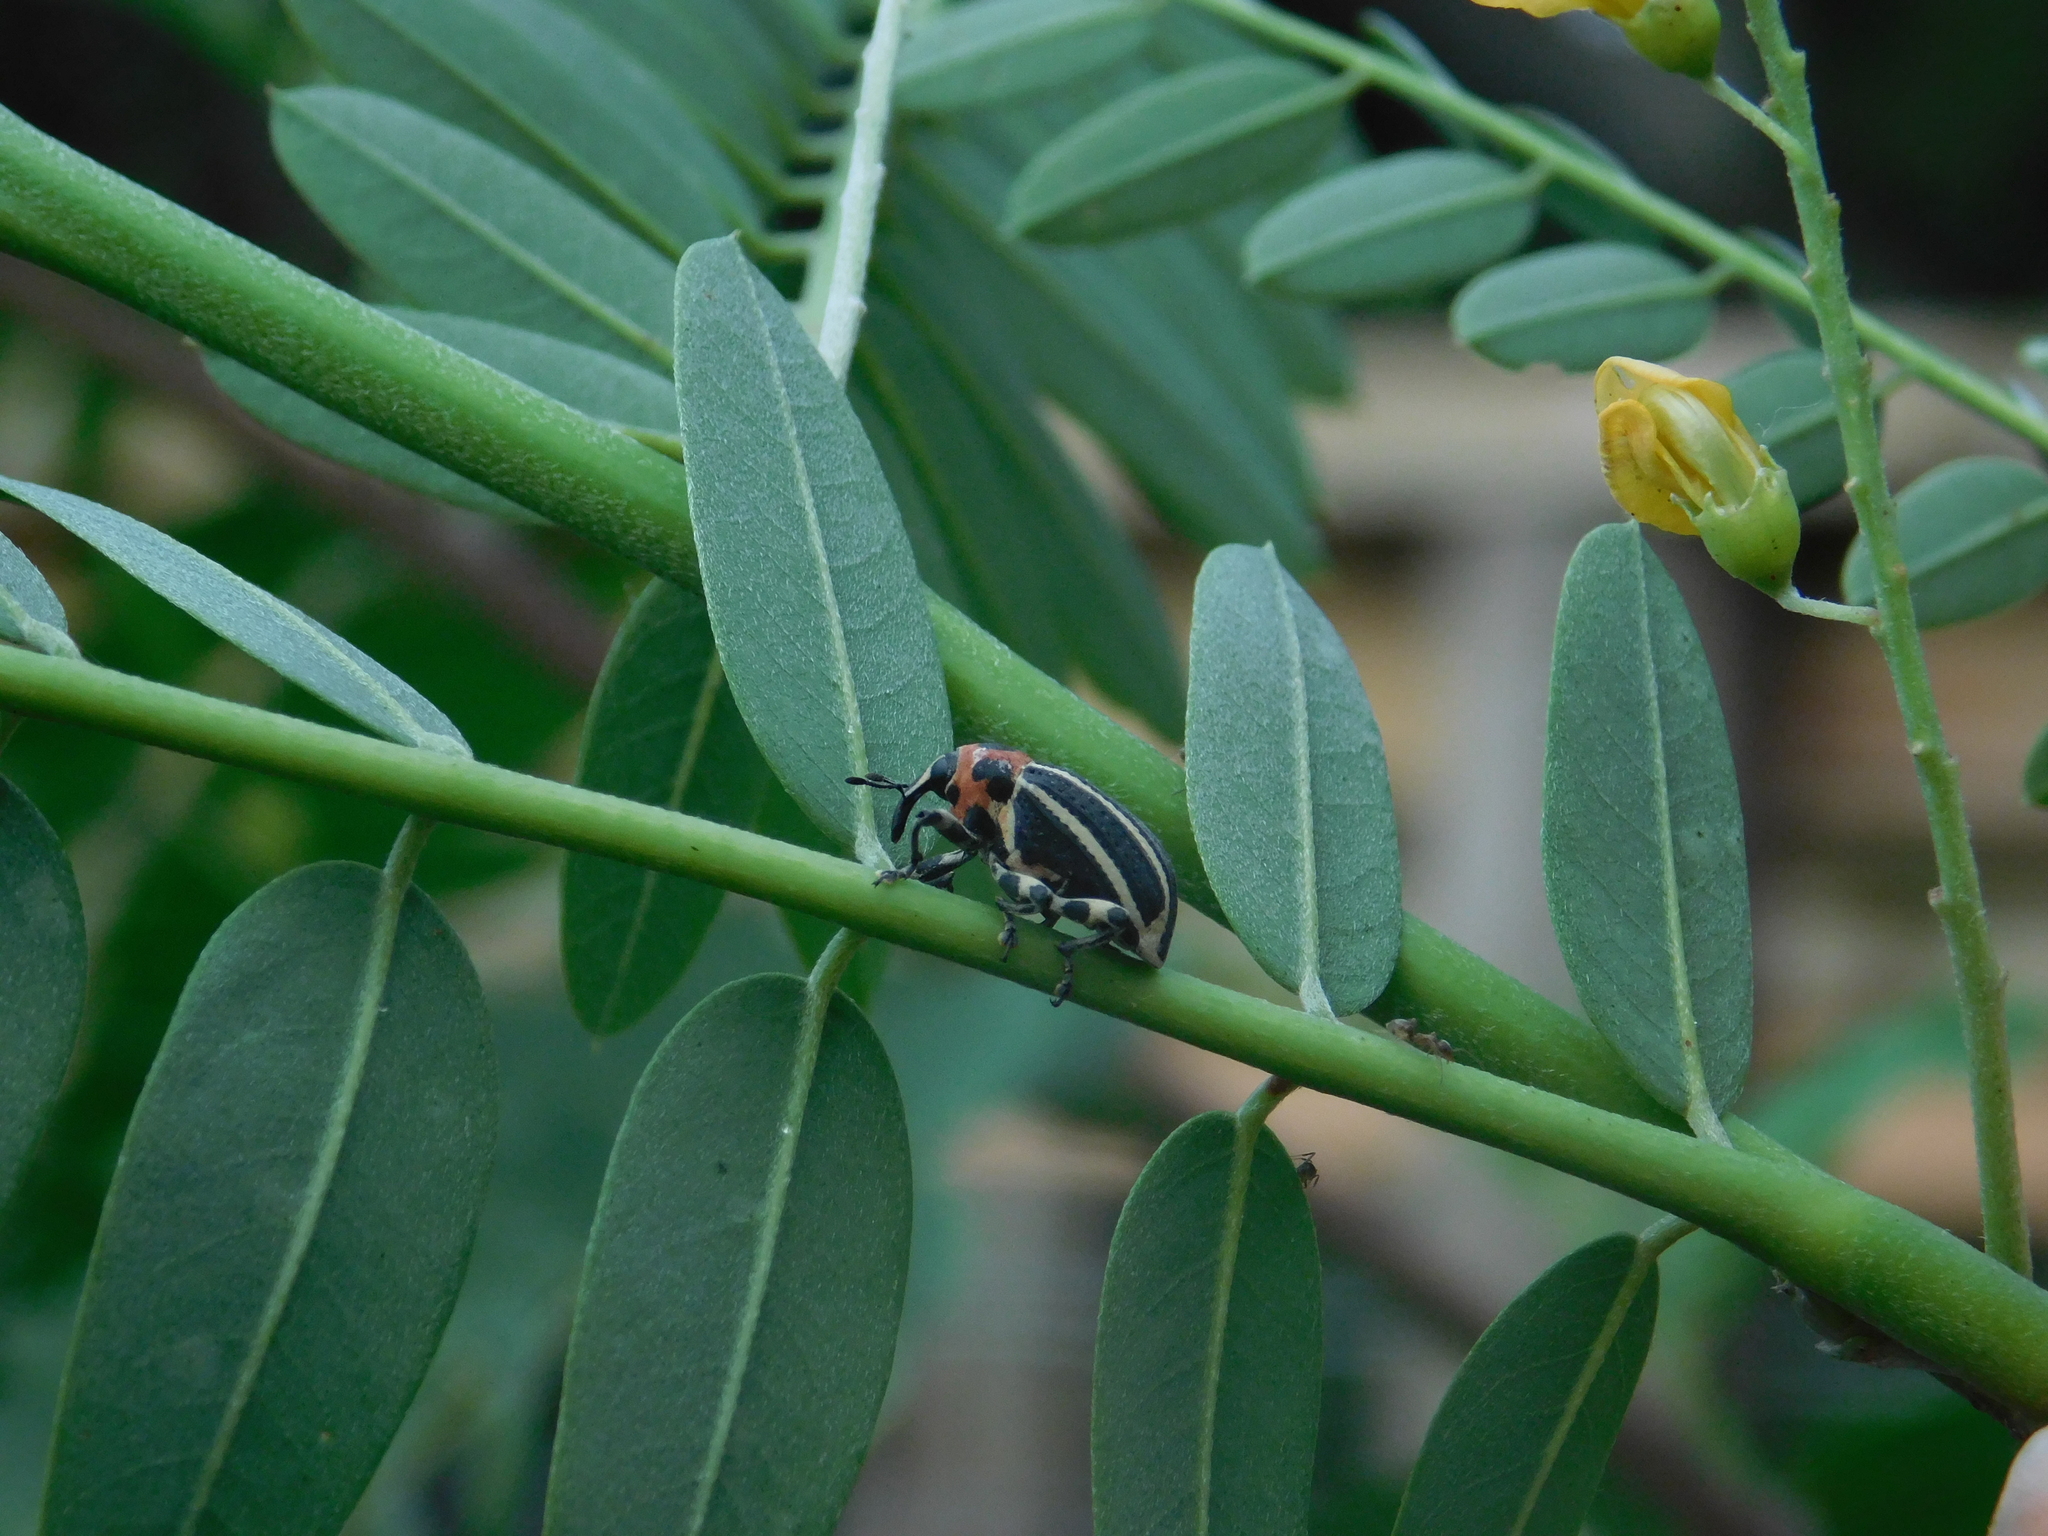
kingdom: Animalia
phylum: Arthropoda
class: Insecta
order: Coleoptera
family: Curculionidae
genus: Neodiplogrammus
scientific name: Neodiplogrammus
